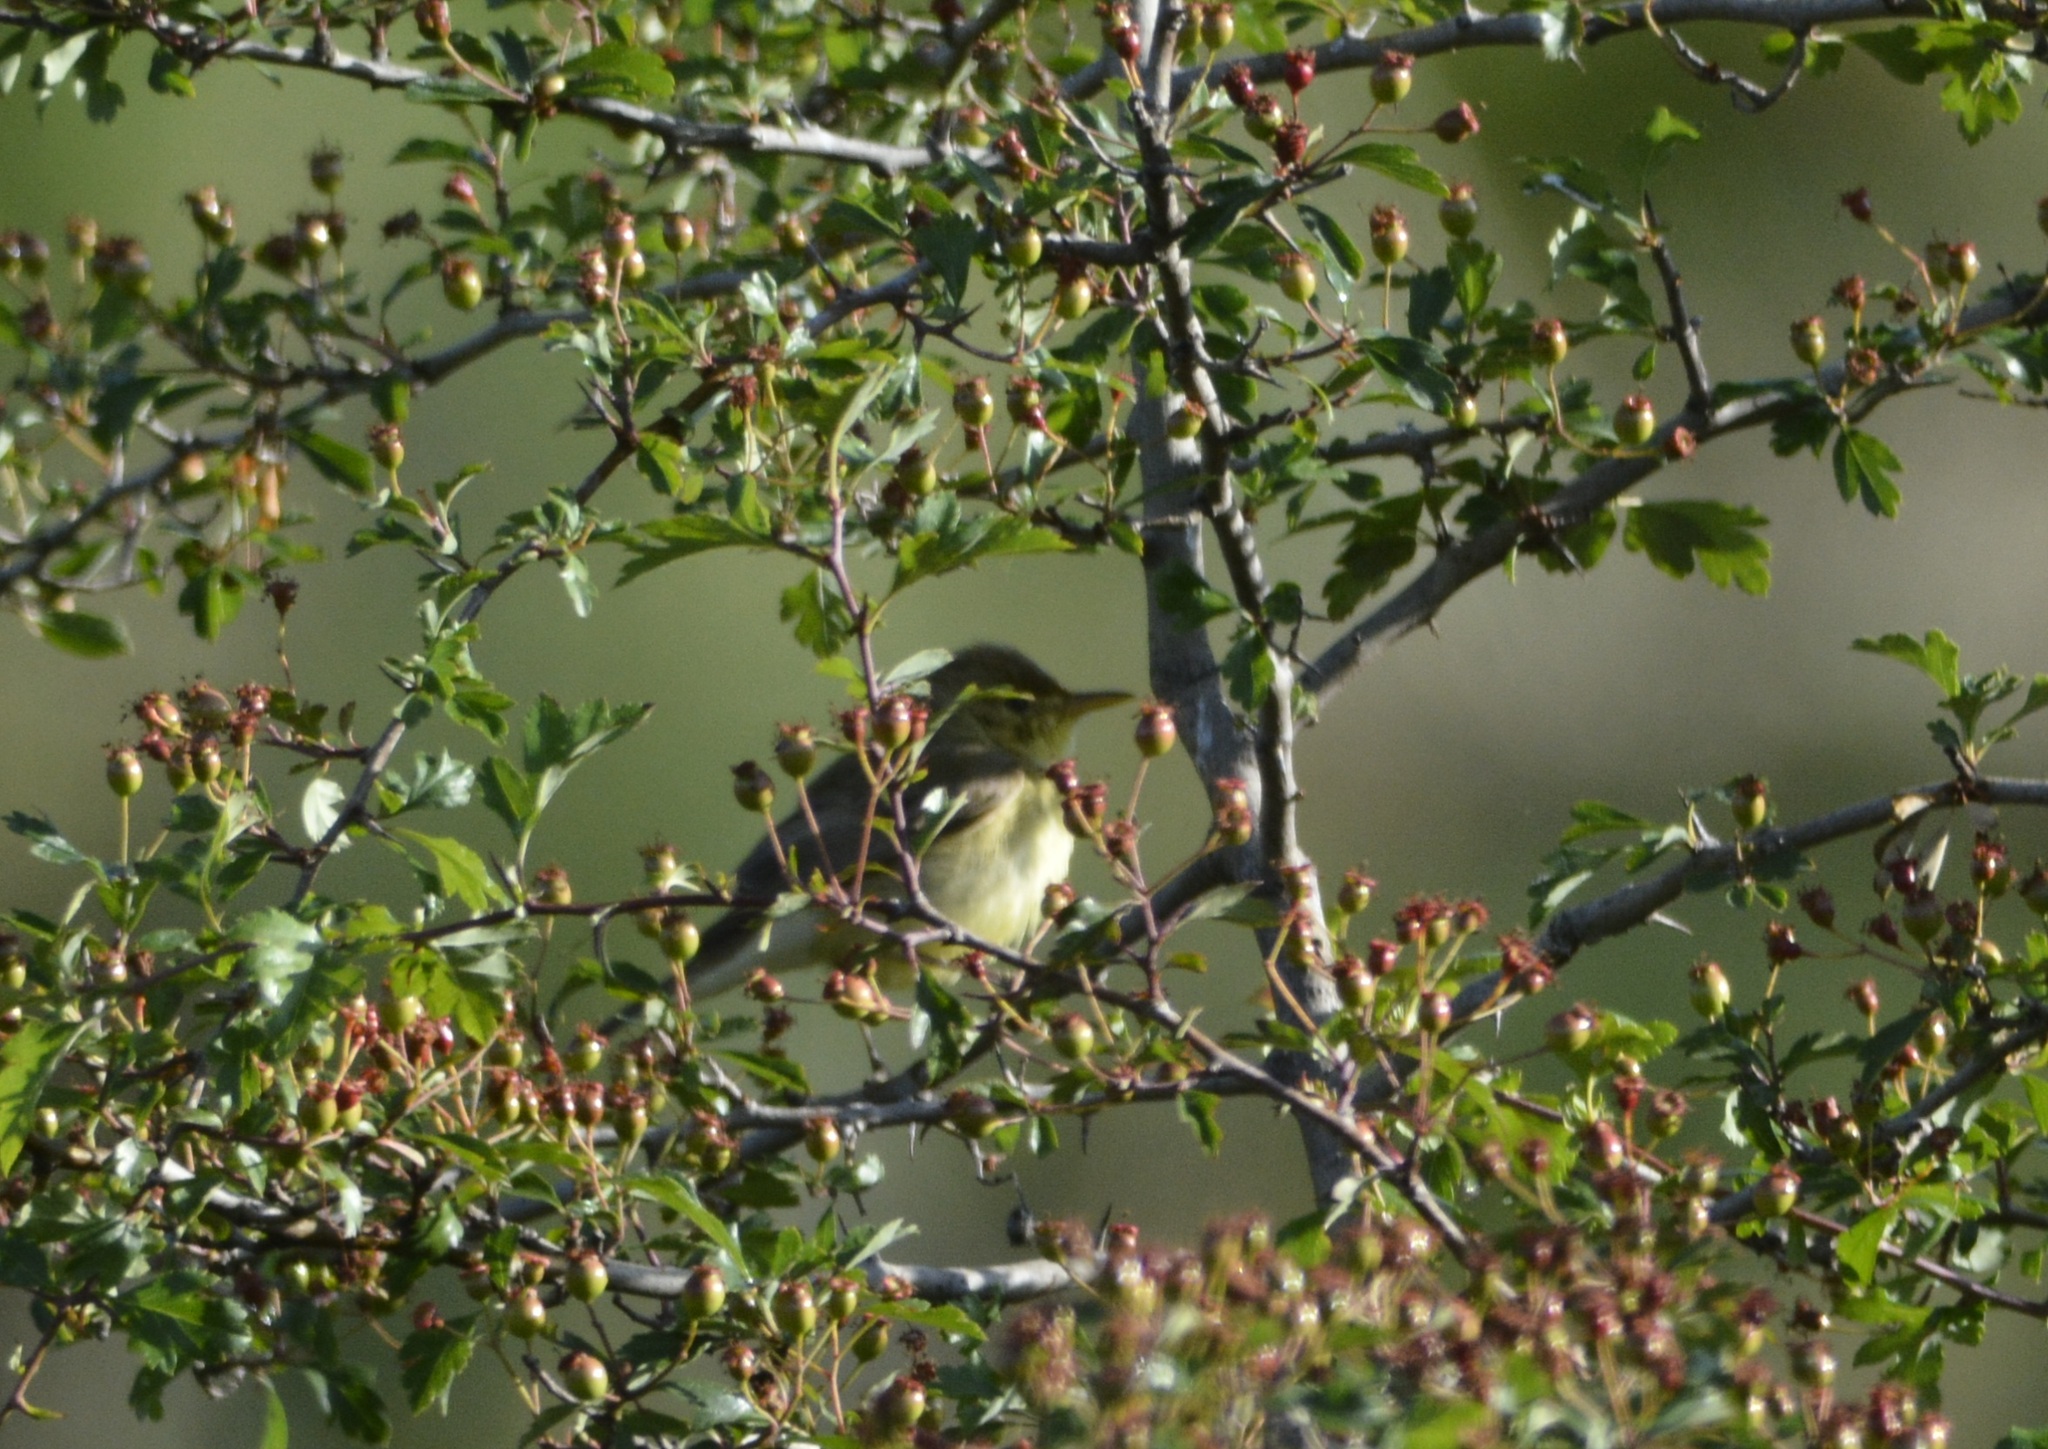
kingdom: Animalia
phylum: Chordata
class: Aves
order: Passeriformes
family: Acrocephalidae
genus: Hippolais
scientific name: Hippolais polyglotta
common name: Melodious warbler
